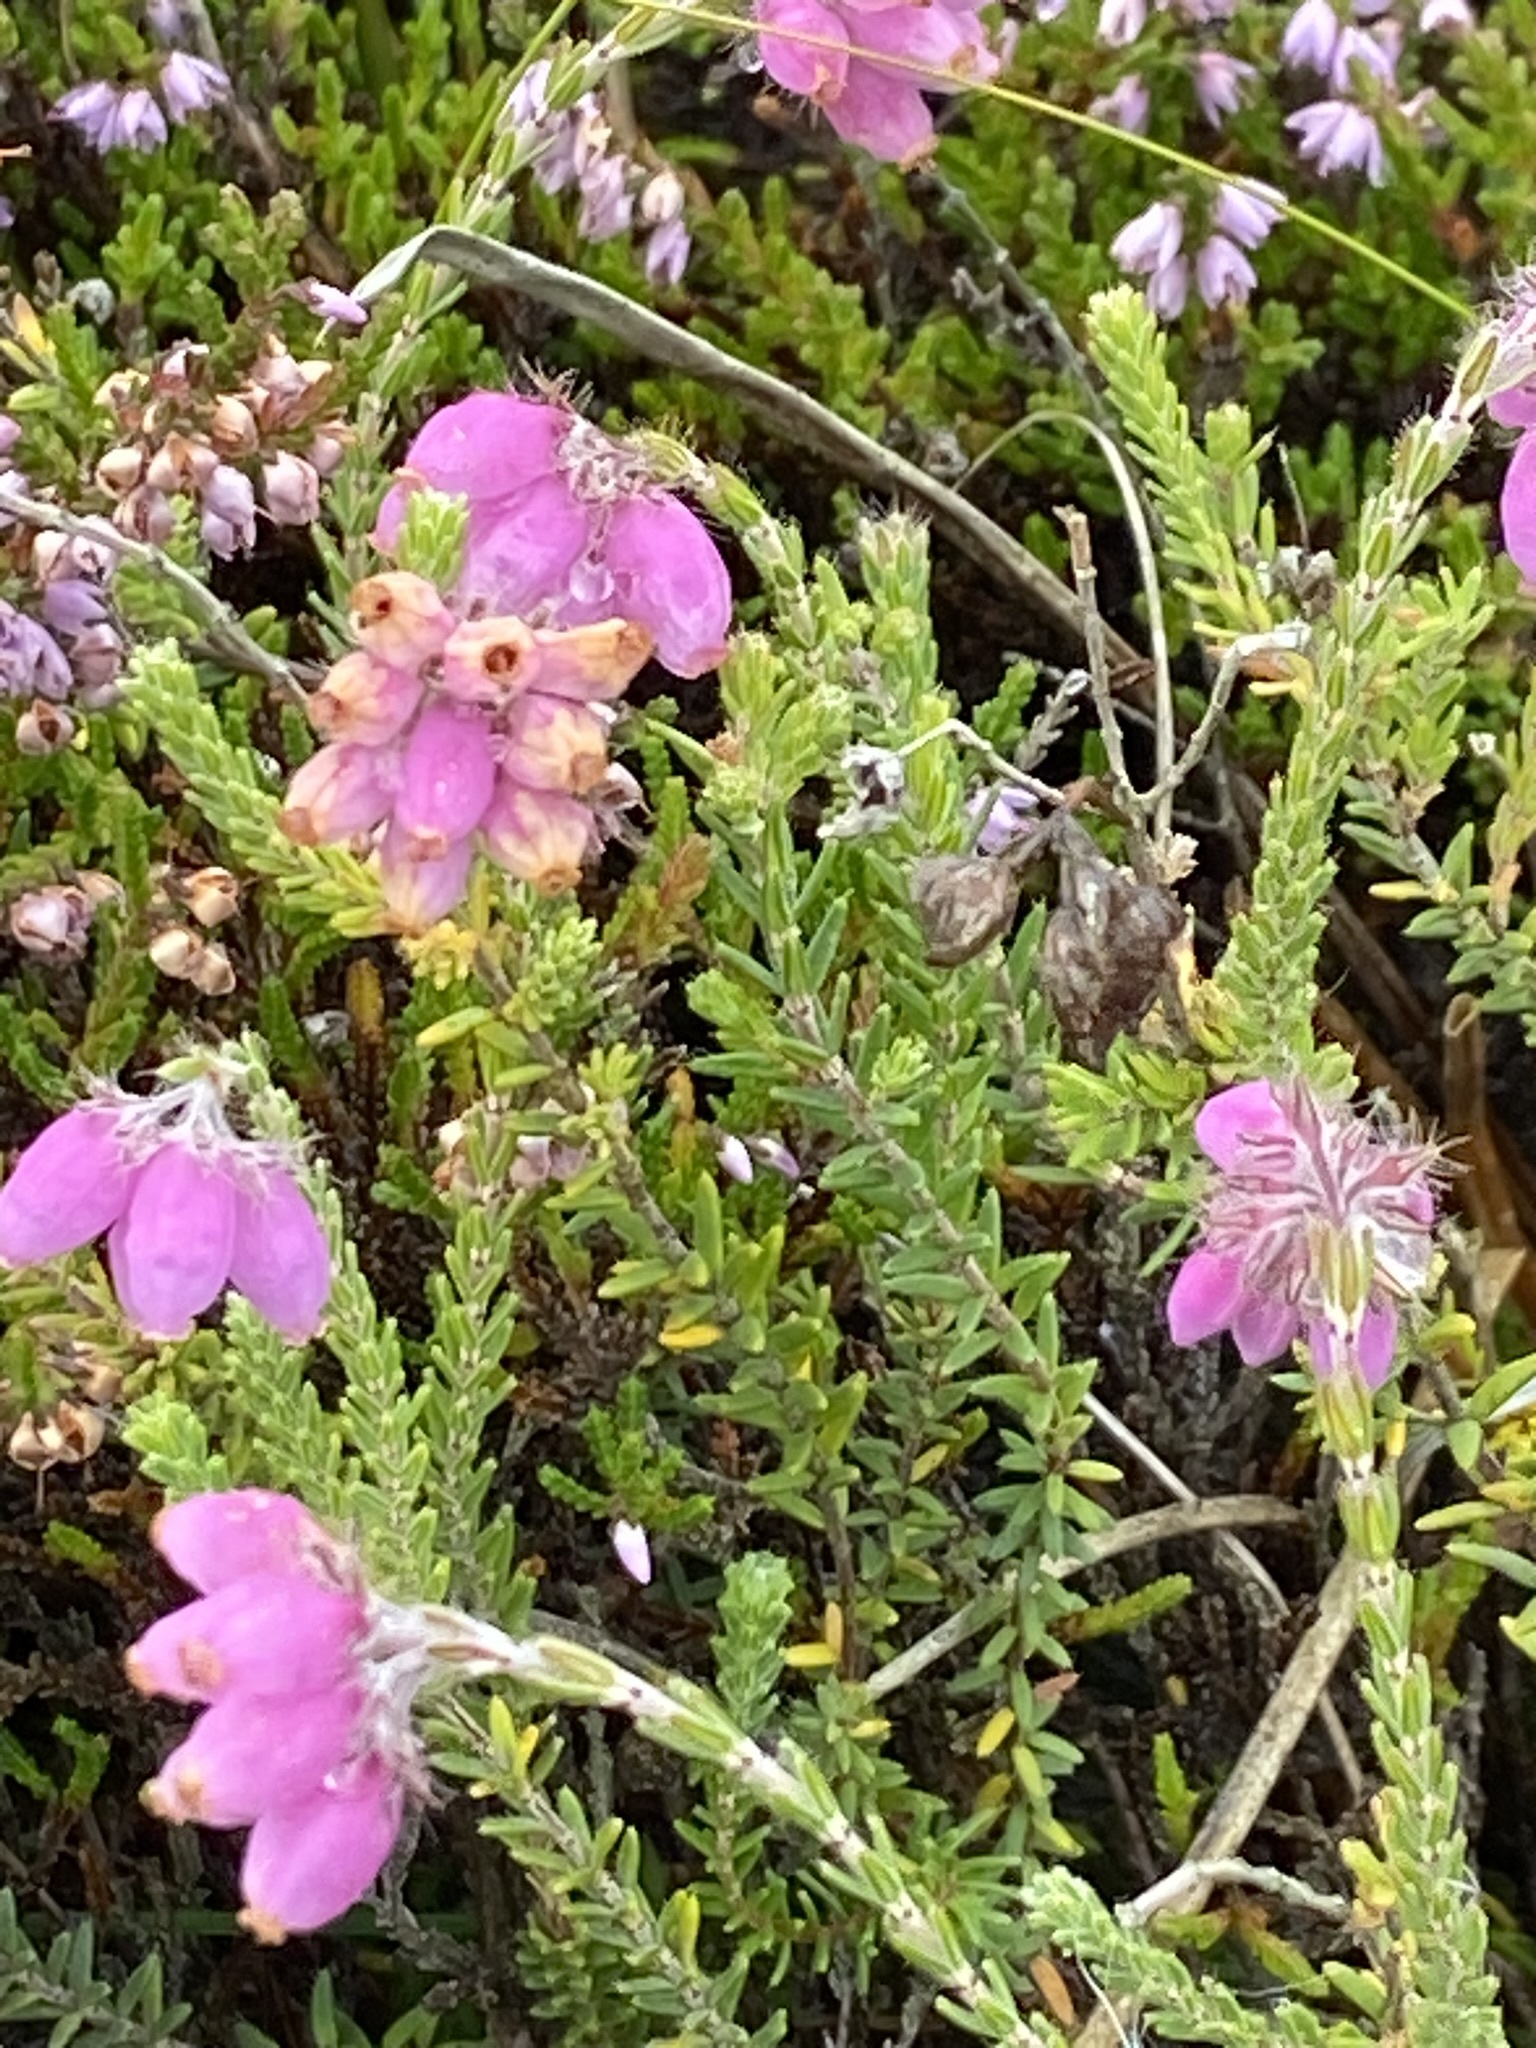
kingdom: Plantae
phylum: Tracheophyta
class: Magnoliopsida
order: Ericales
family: Ericaceae
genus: Erica
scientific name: Erica tetralix
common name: Cross-leaved heath
